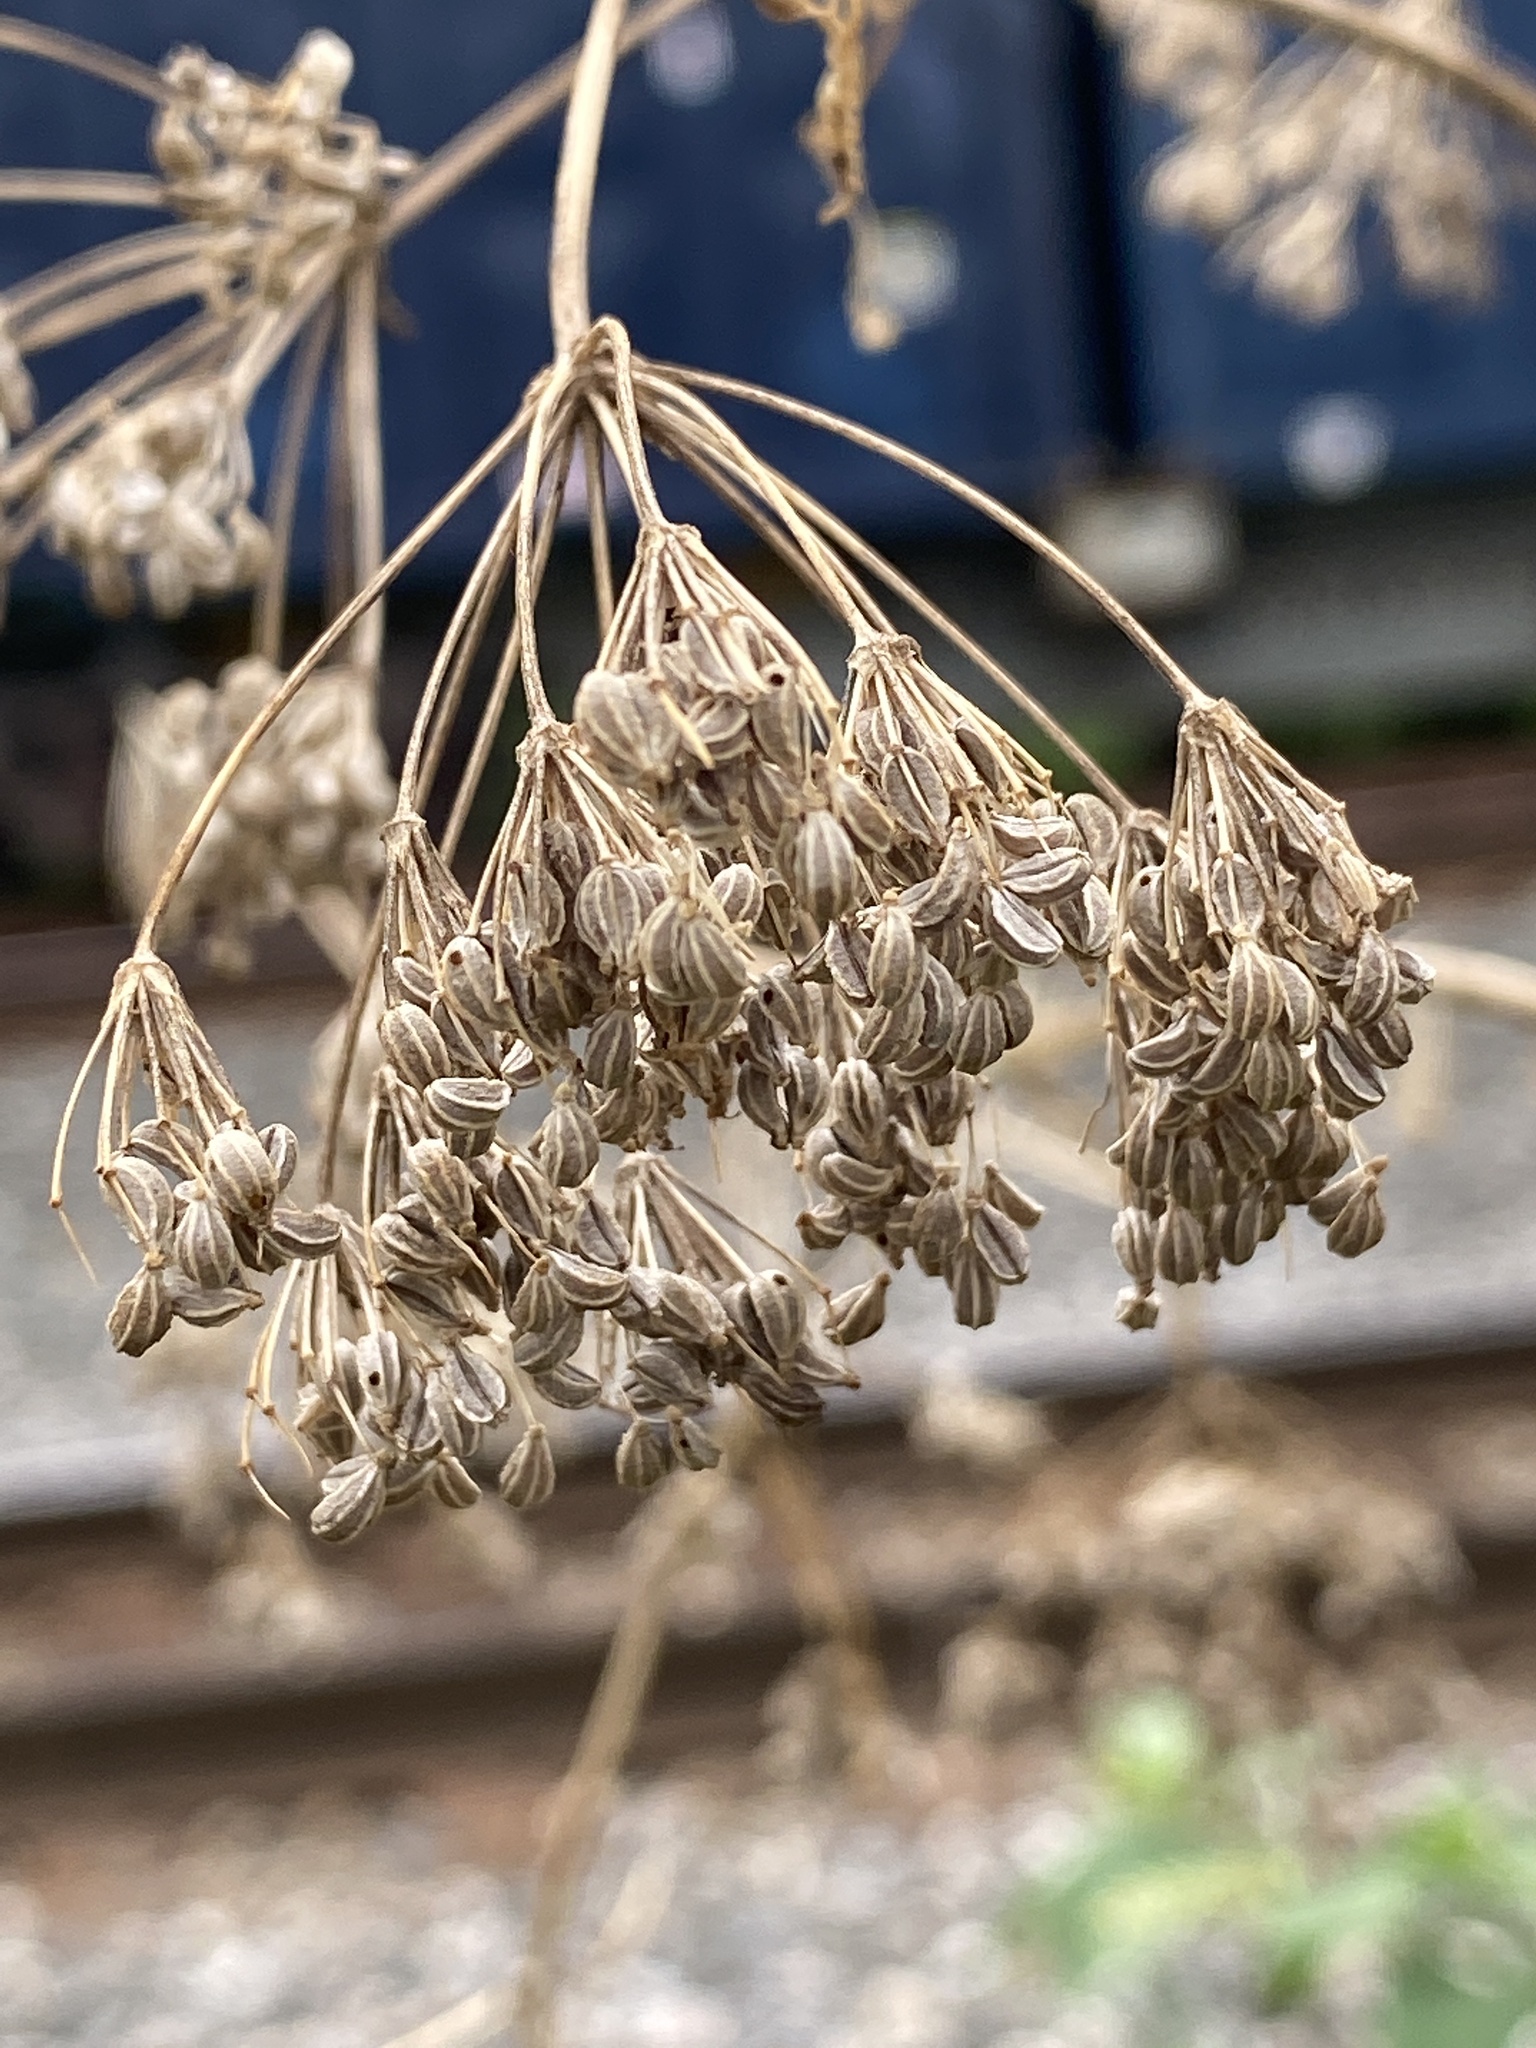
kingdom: Plantae
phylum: Tracheophyta
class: Magnoliopsida
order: Apiales
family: Apiaceae
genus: Conium
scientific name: Conium maculatum
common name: Hemlock
